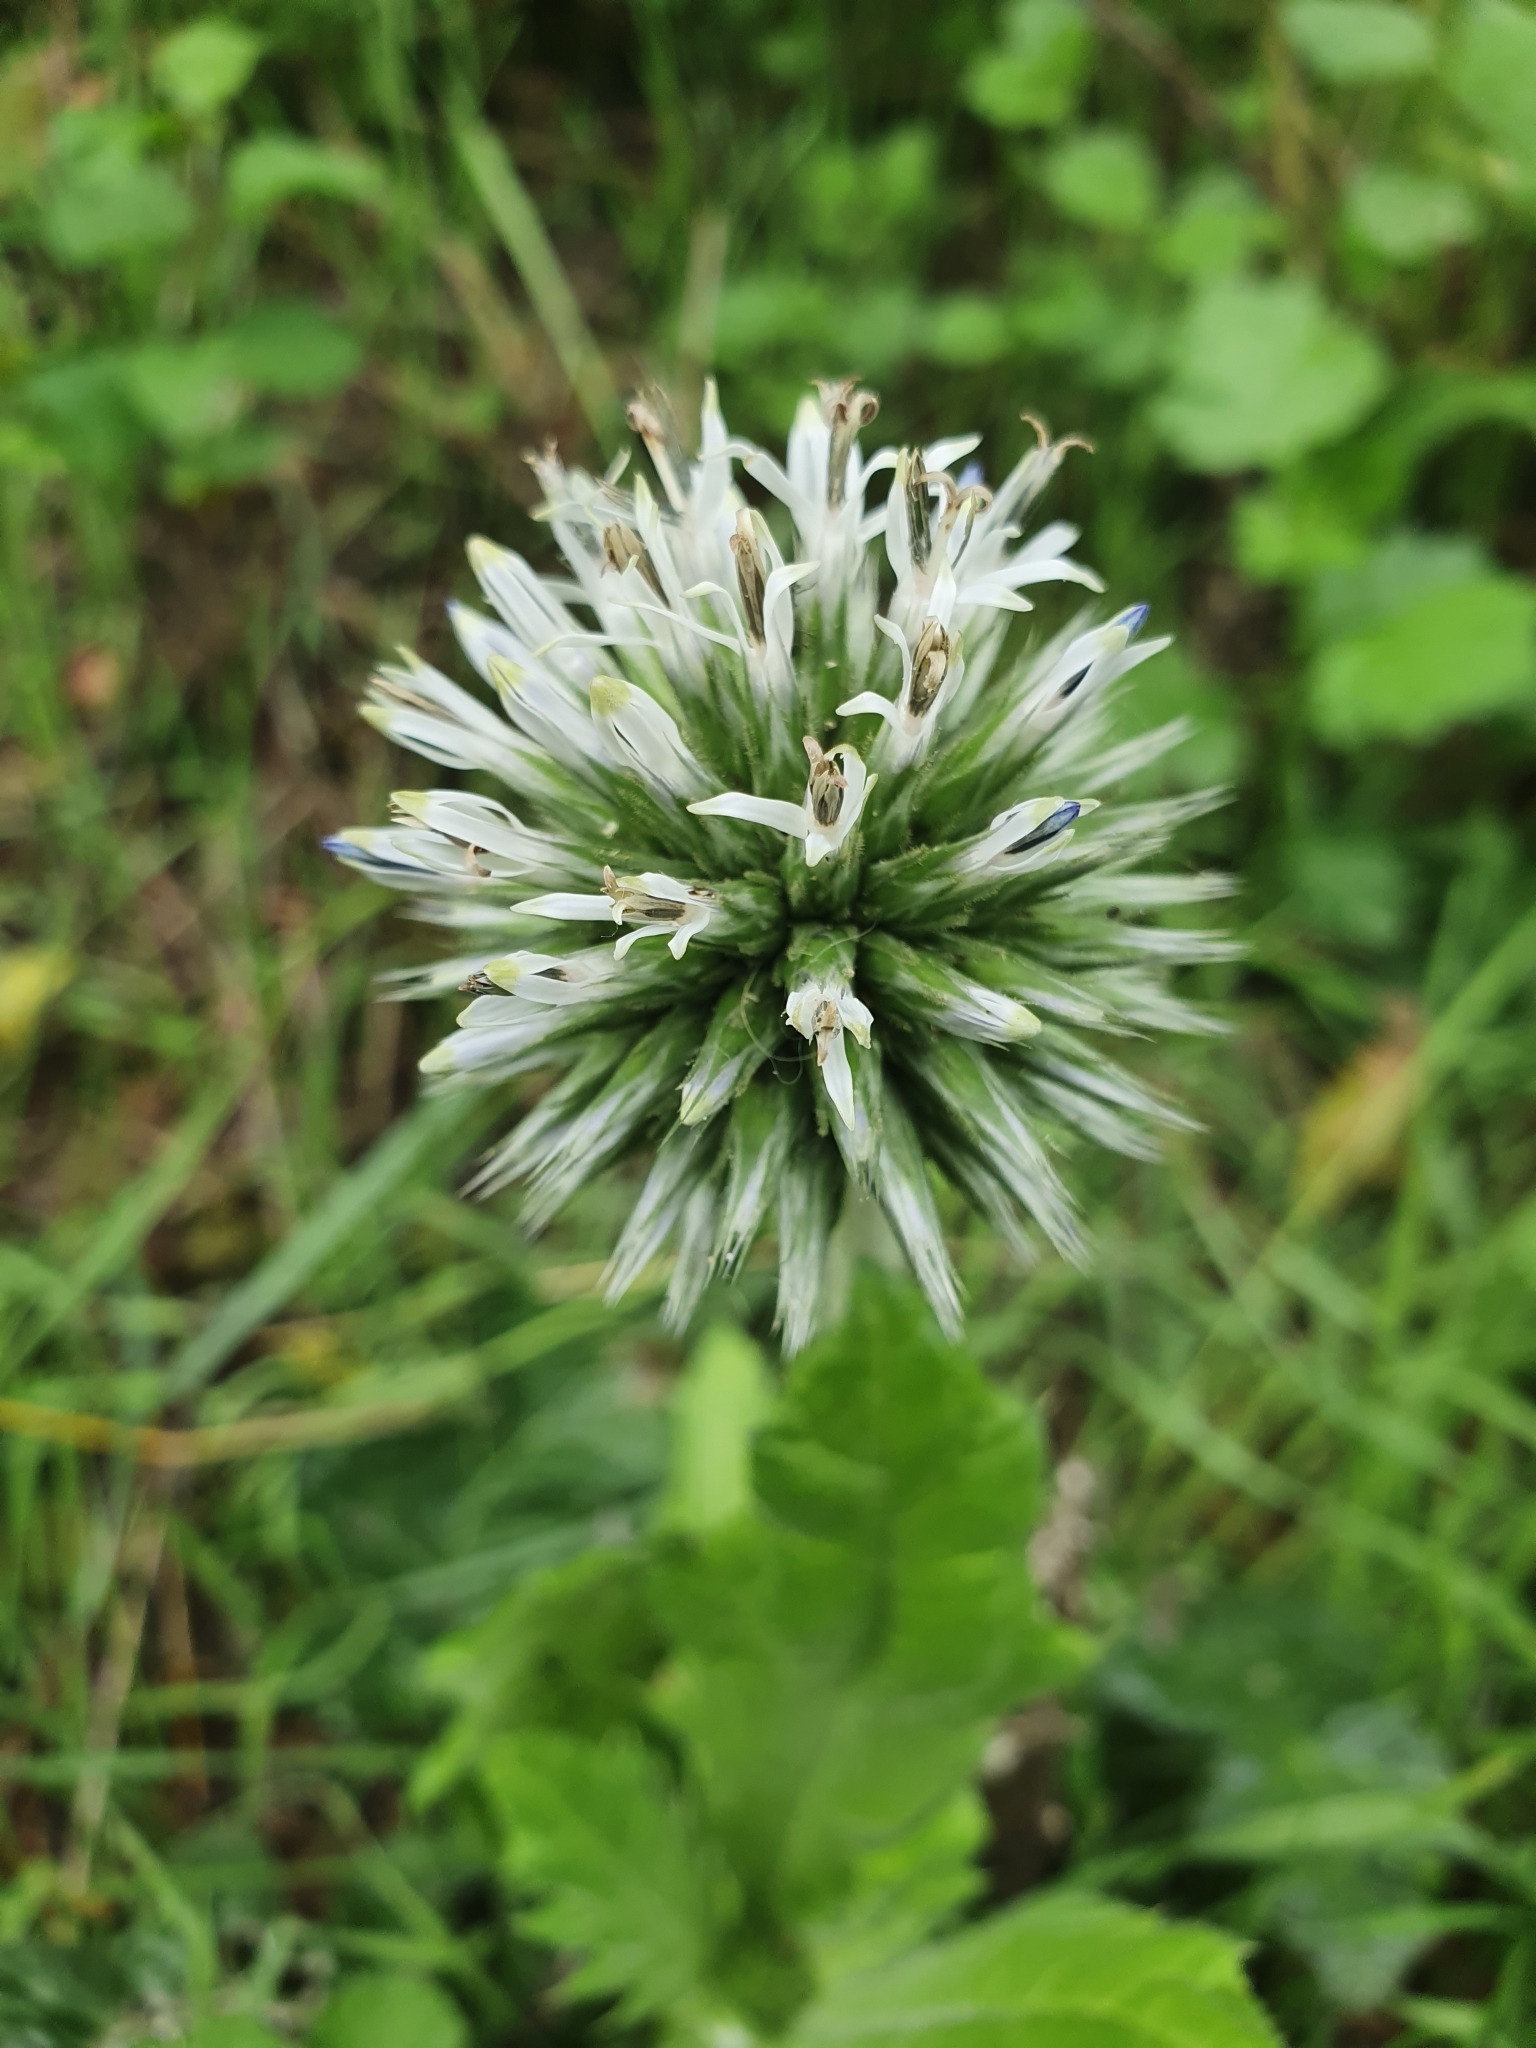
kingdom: Plantae
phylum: Tracheophyta
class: Magnoliopsida
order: Asterales
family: Asteraceae
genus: Echinops
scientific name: Echinops sphaerocephalus
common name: Glandular globe-thistle
